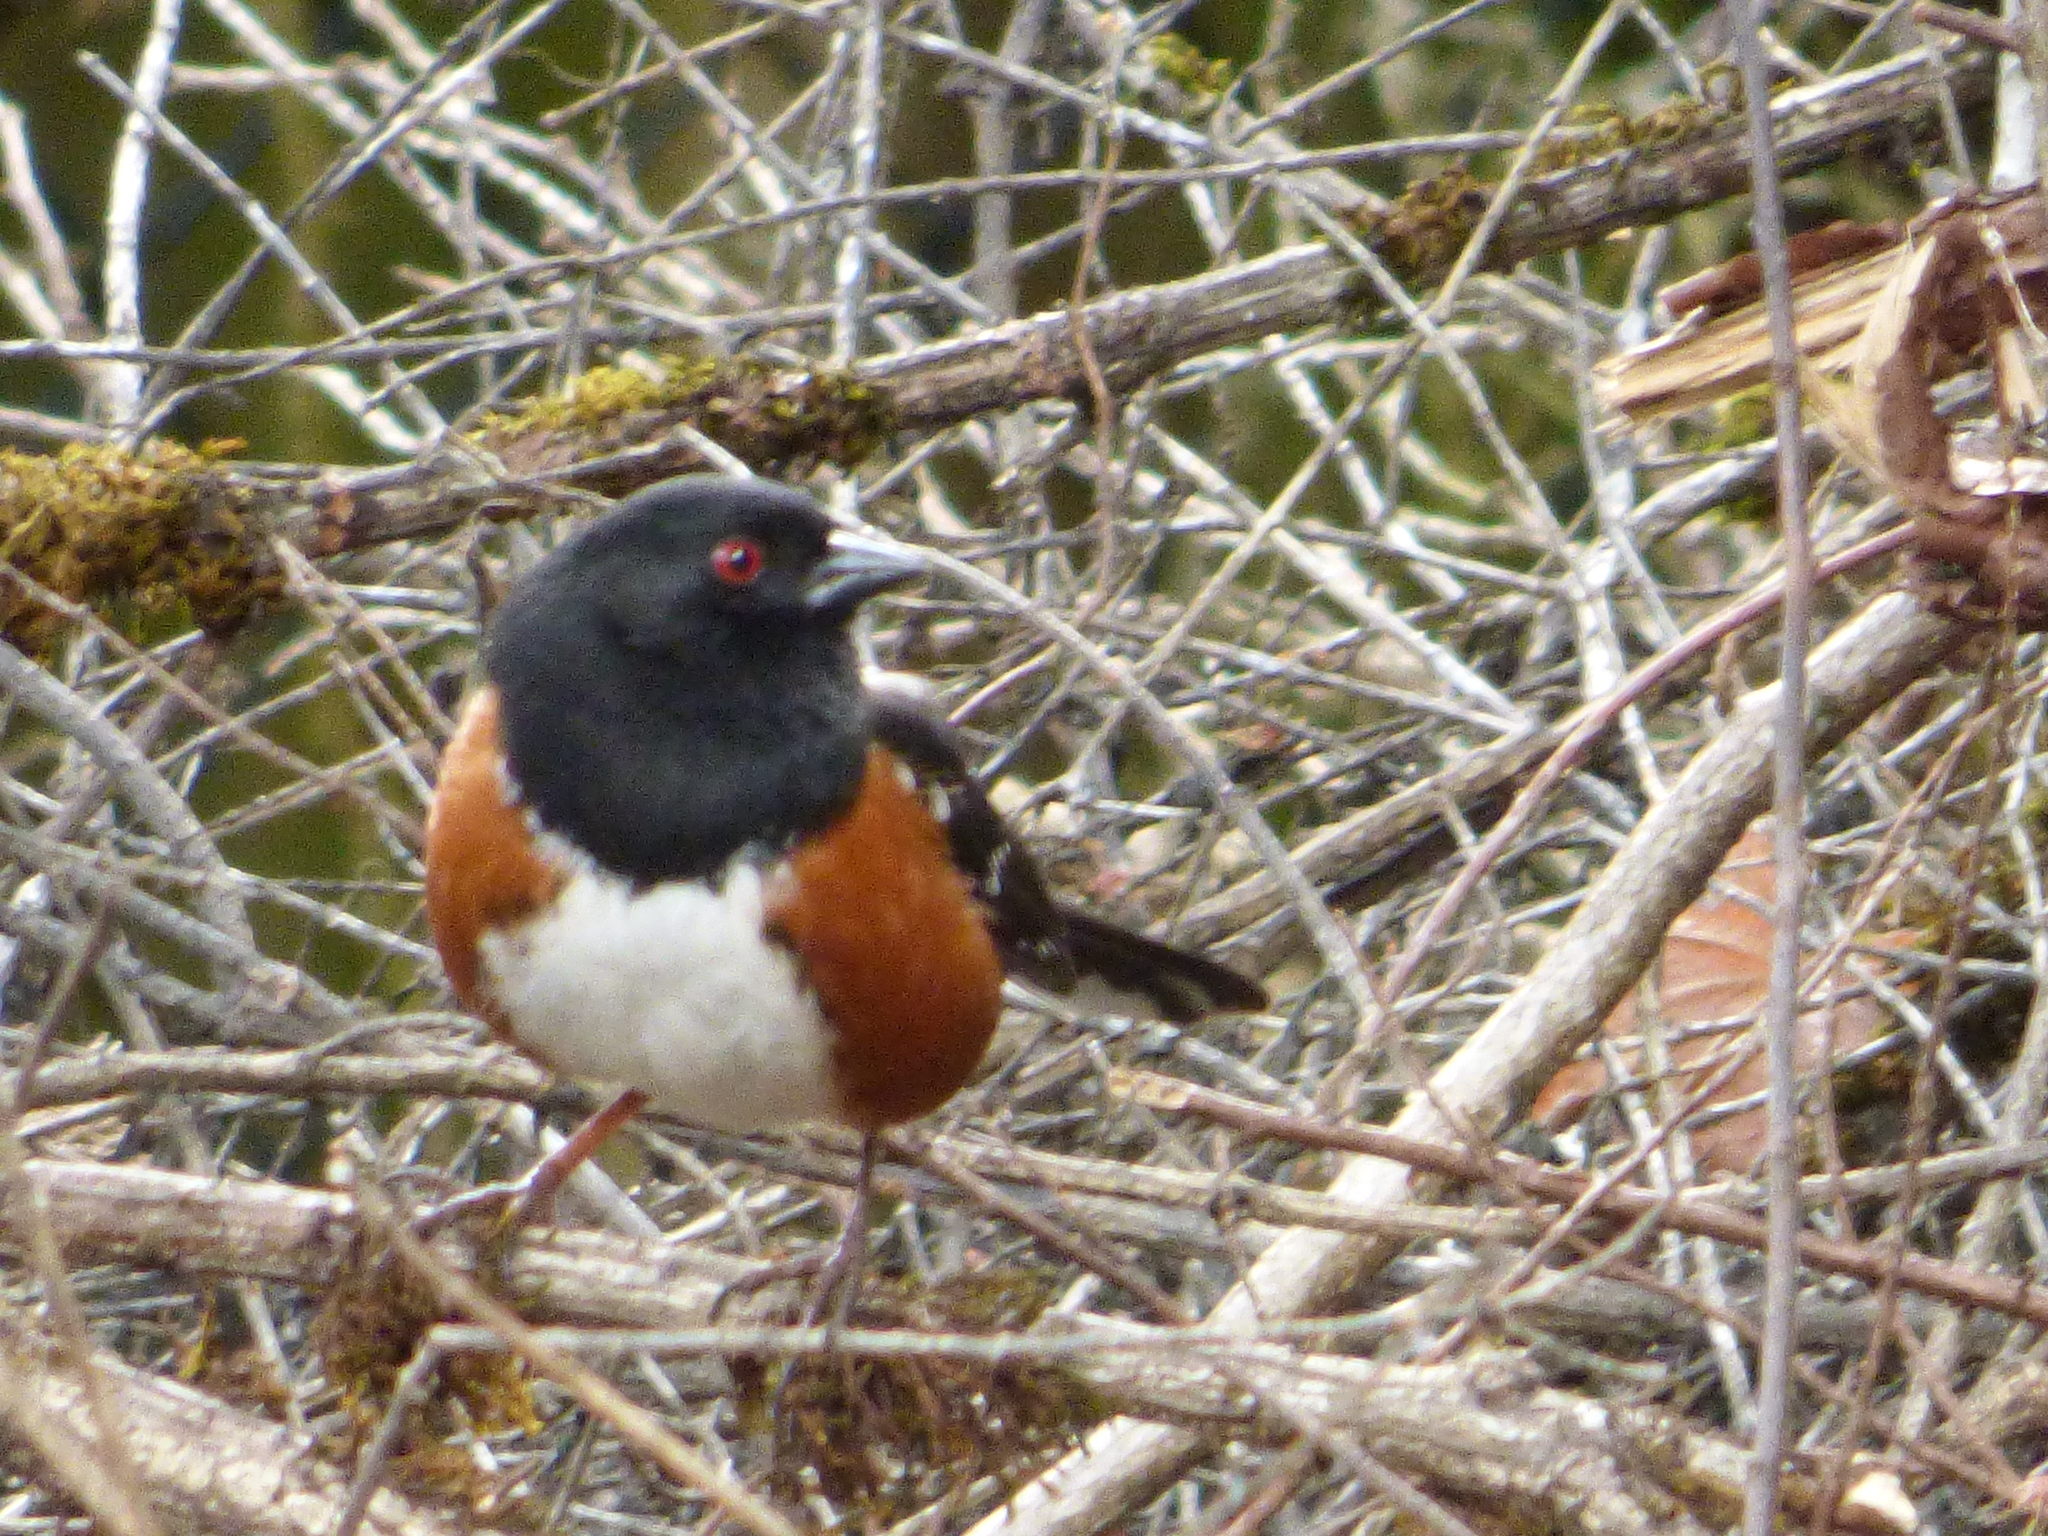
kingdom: Animalia
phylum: Chordata
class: Aves
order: Passeriformes
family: Passerellidae
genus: Pipilo
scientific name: Pipilo maculatus
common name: Spotted towhee
